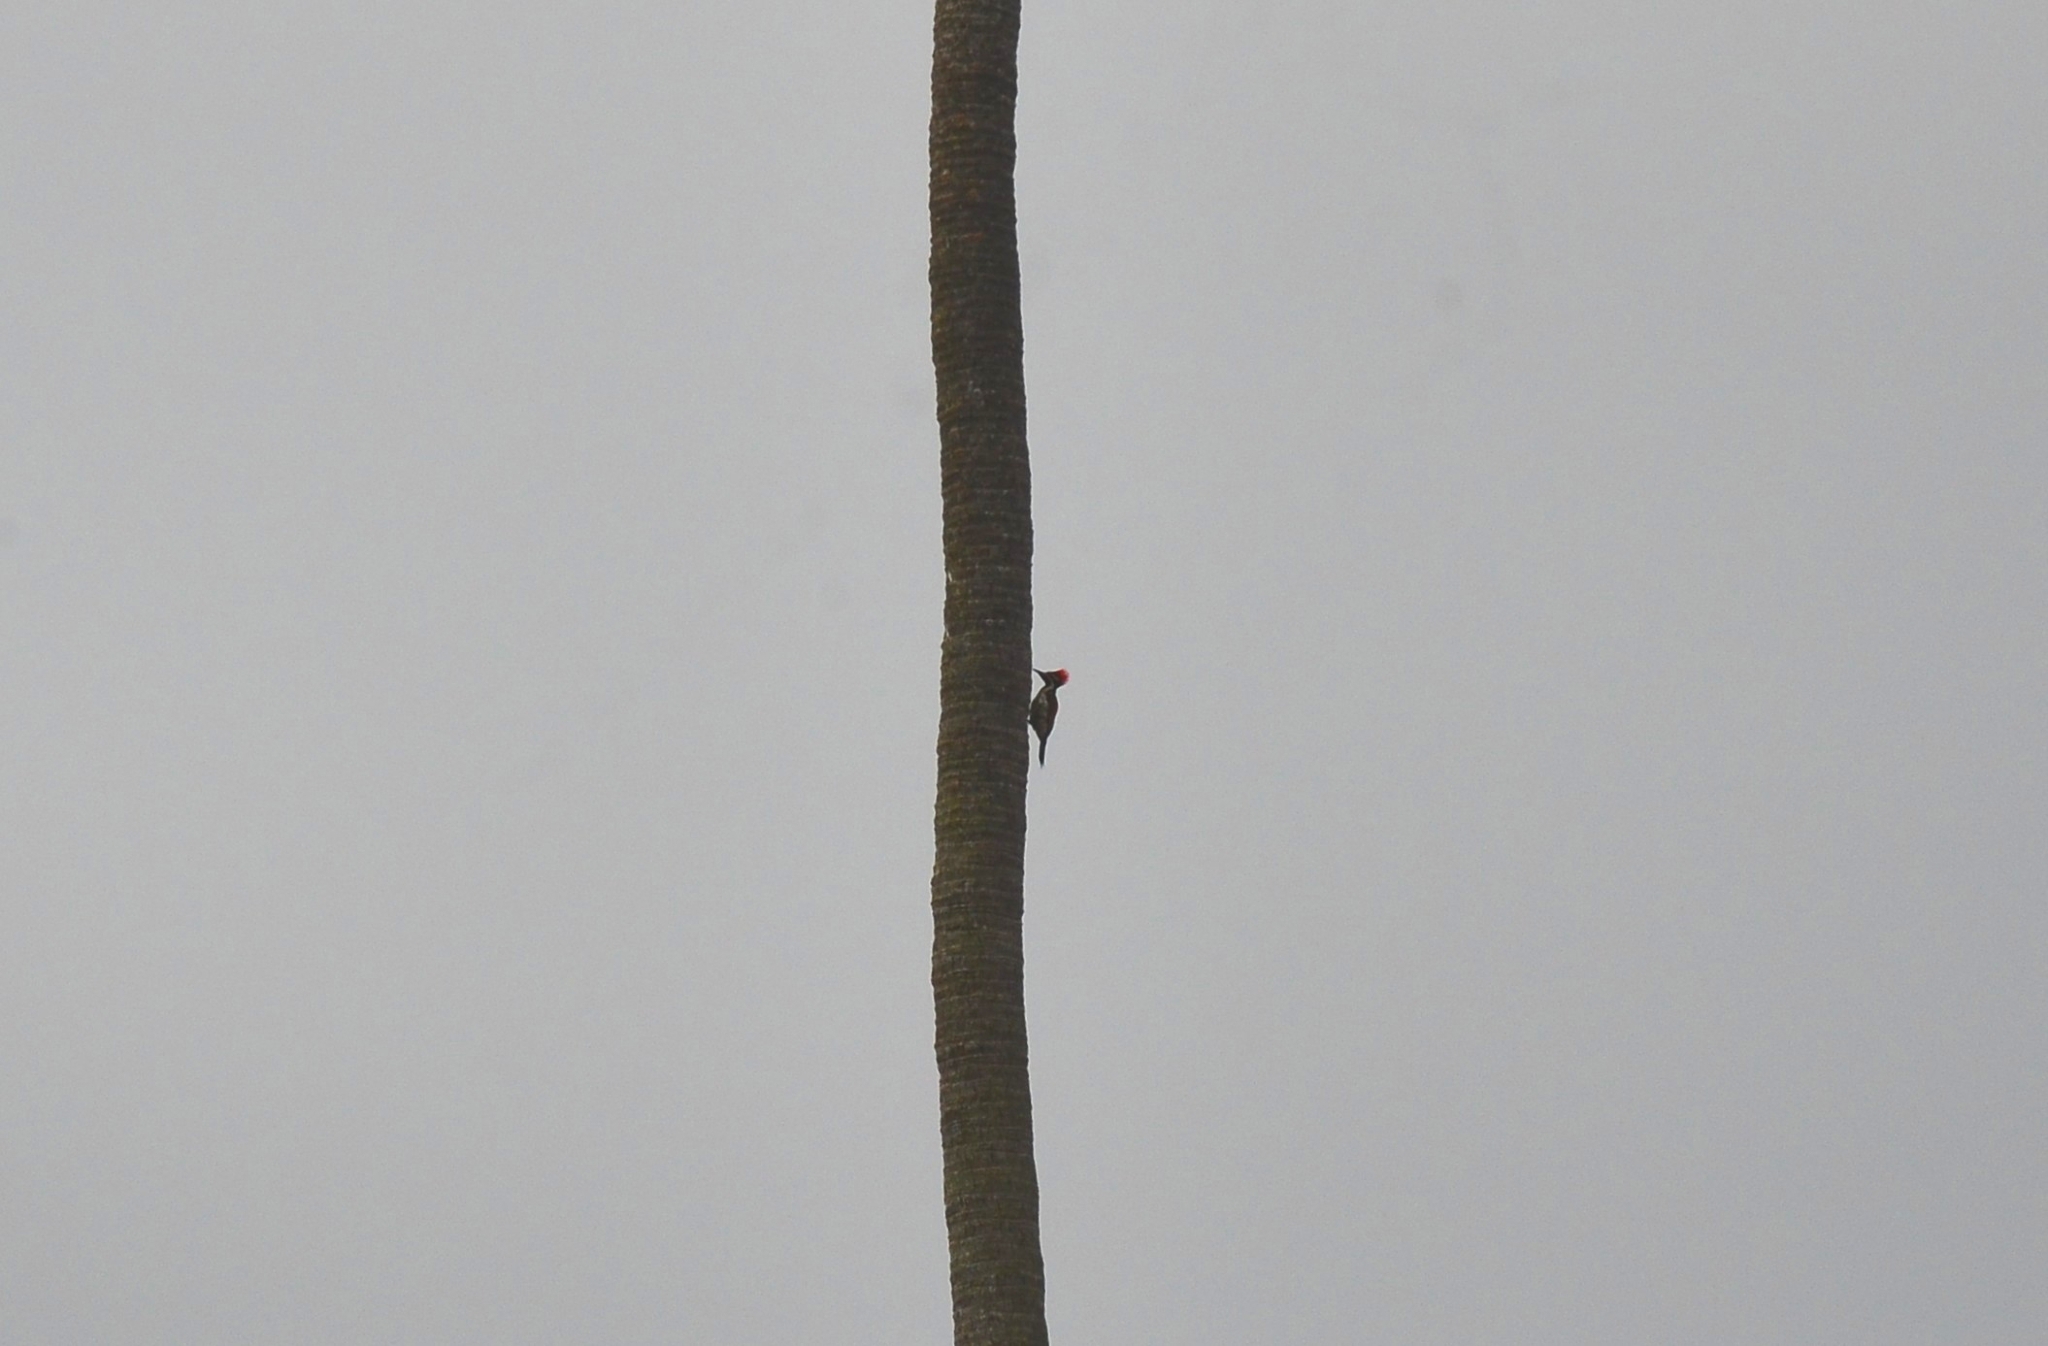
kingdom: Animalia
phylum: Chordata
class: Aves
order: Piciformes
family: Picidae
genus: Dinopium
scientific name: Dinopium benghalense
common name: Black-rumped flameback
